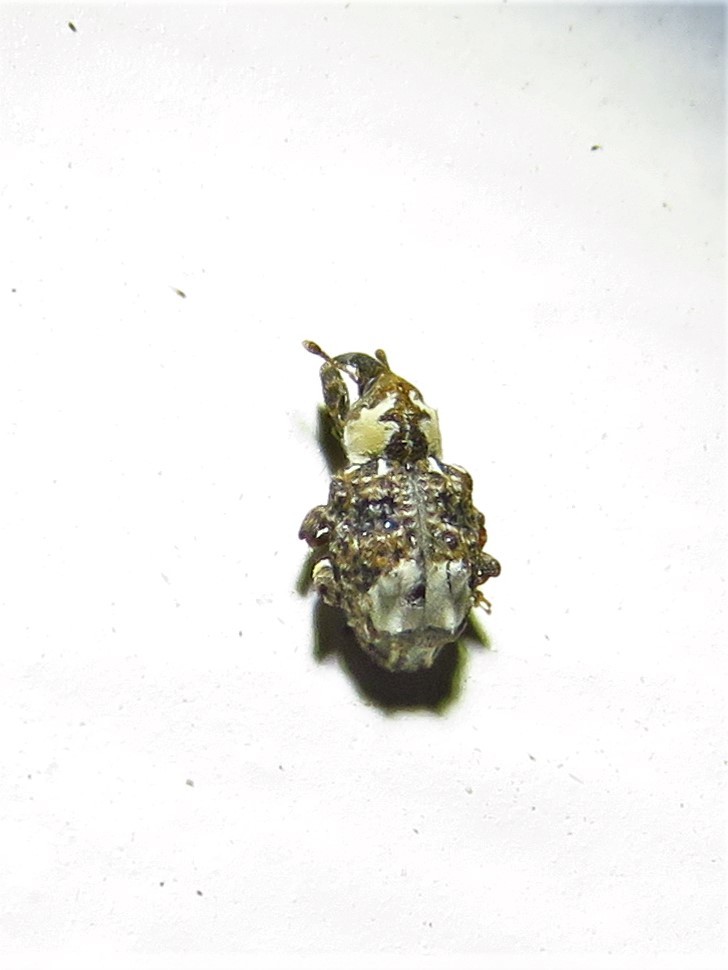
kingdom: Animalia
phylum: Arthropoda
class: Insecta
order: Coleoptera
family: Curculionidae
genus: Conotrachelus
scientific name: Conotrachelus belfragei
